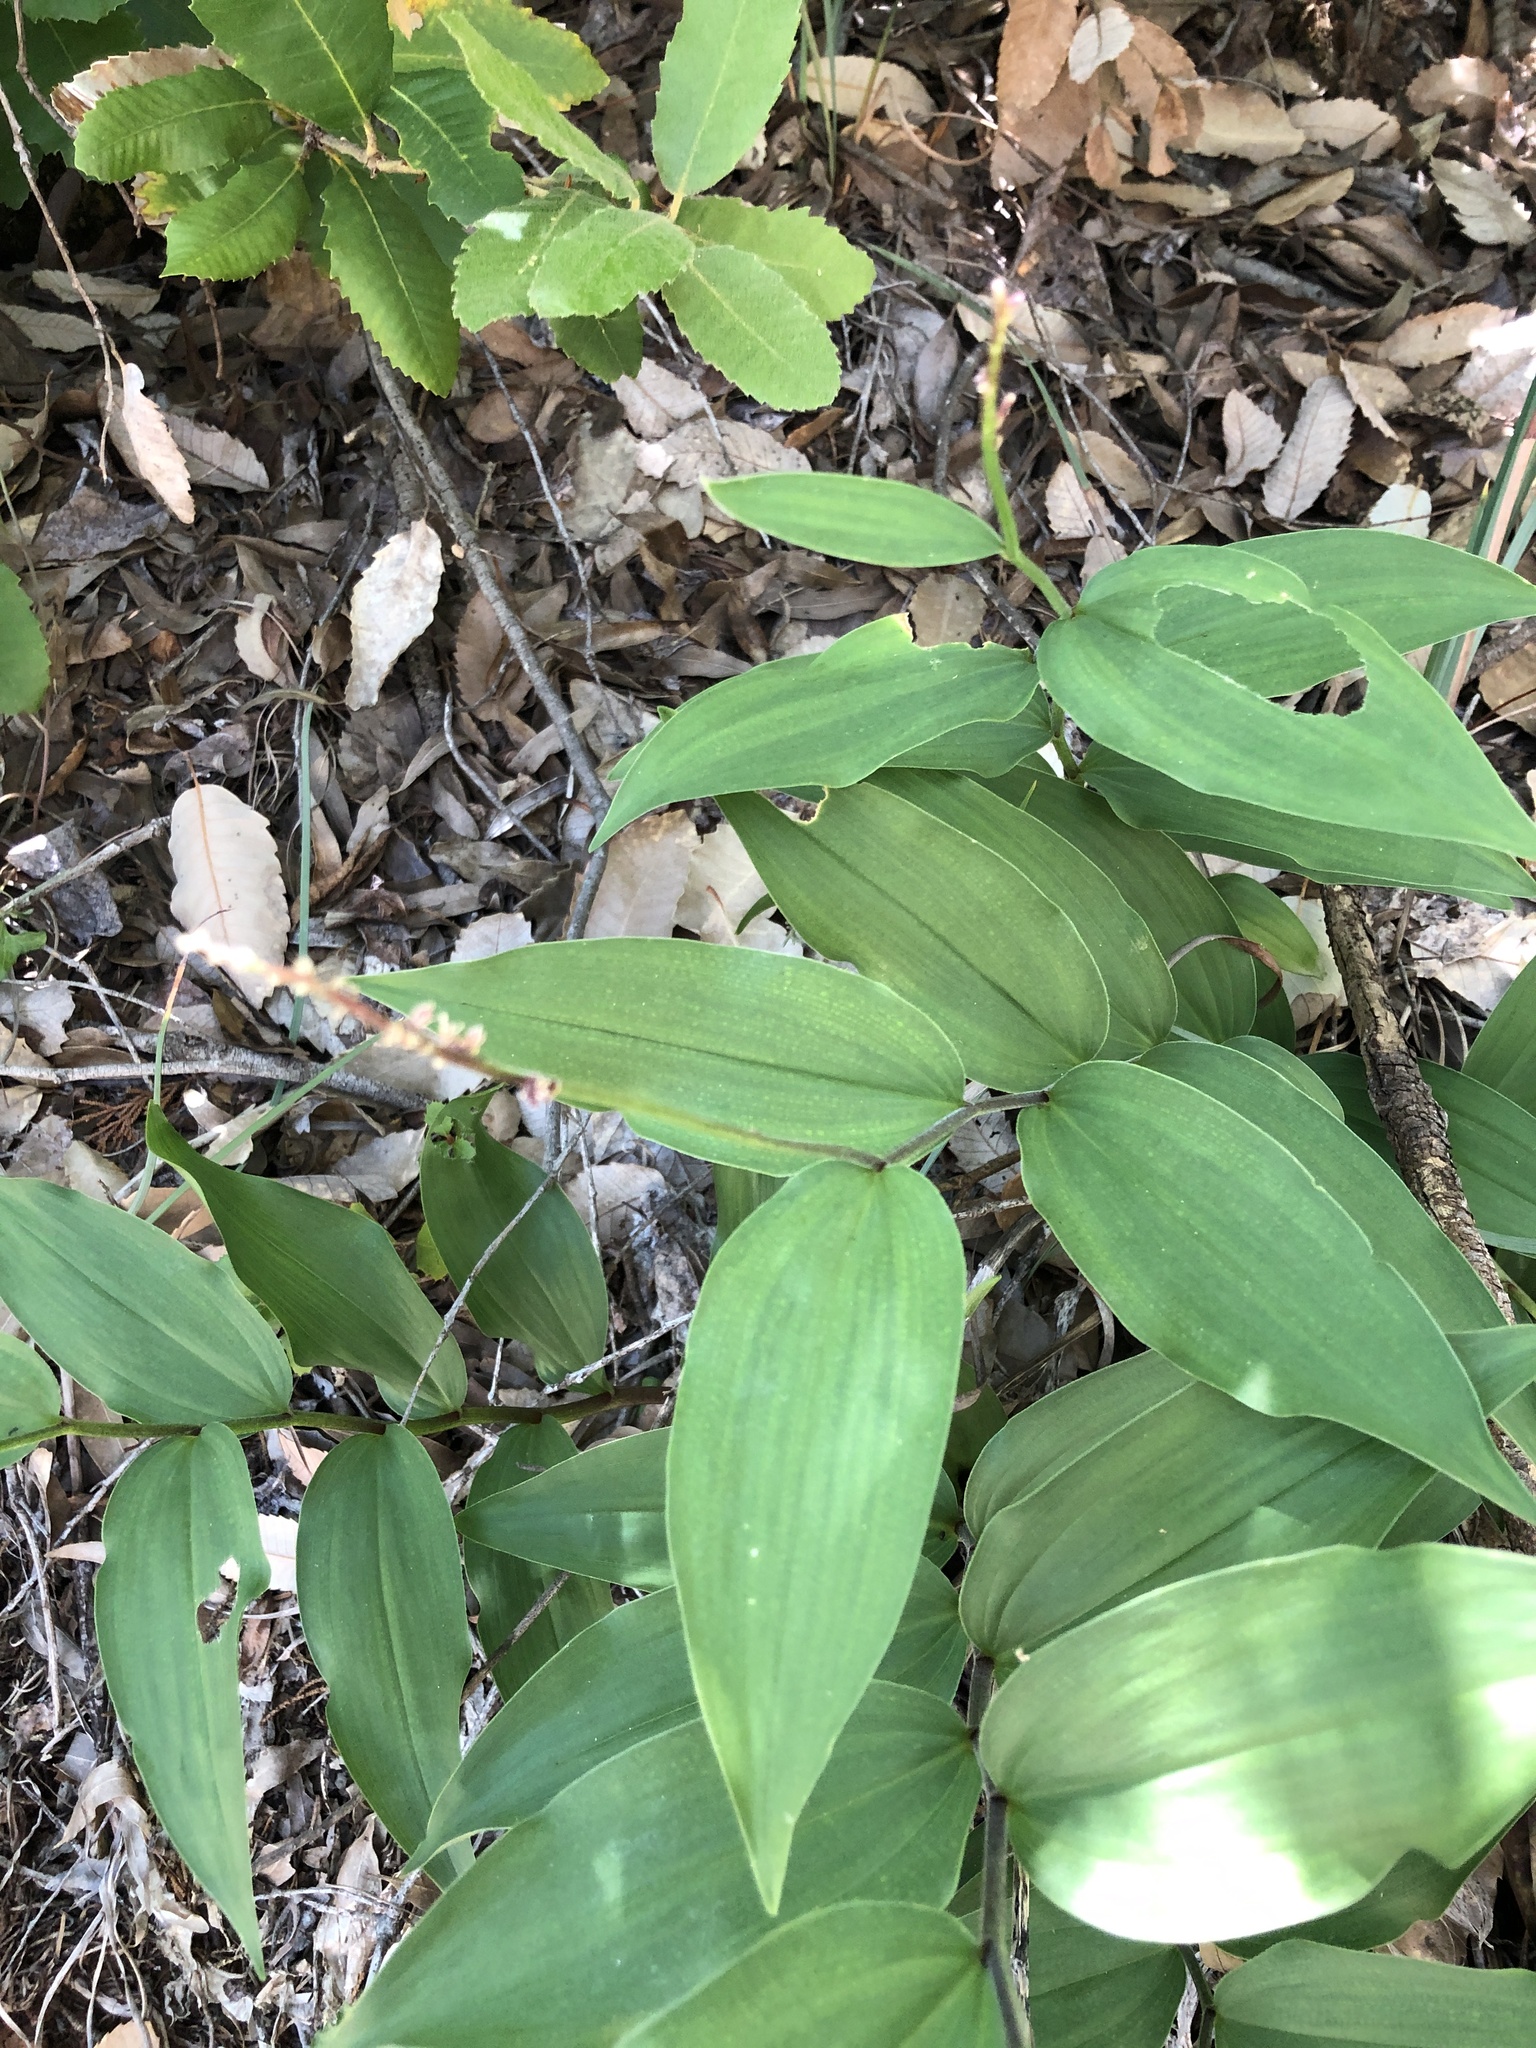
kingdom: Plantae
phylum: Tracheophyta
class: Liliopsida
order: Asparagales
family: Asparagaceae
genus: Maianthemum
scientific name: Maianthemum racemosum
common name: False spikenard
